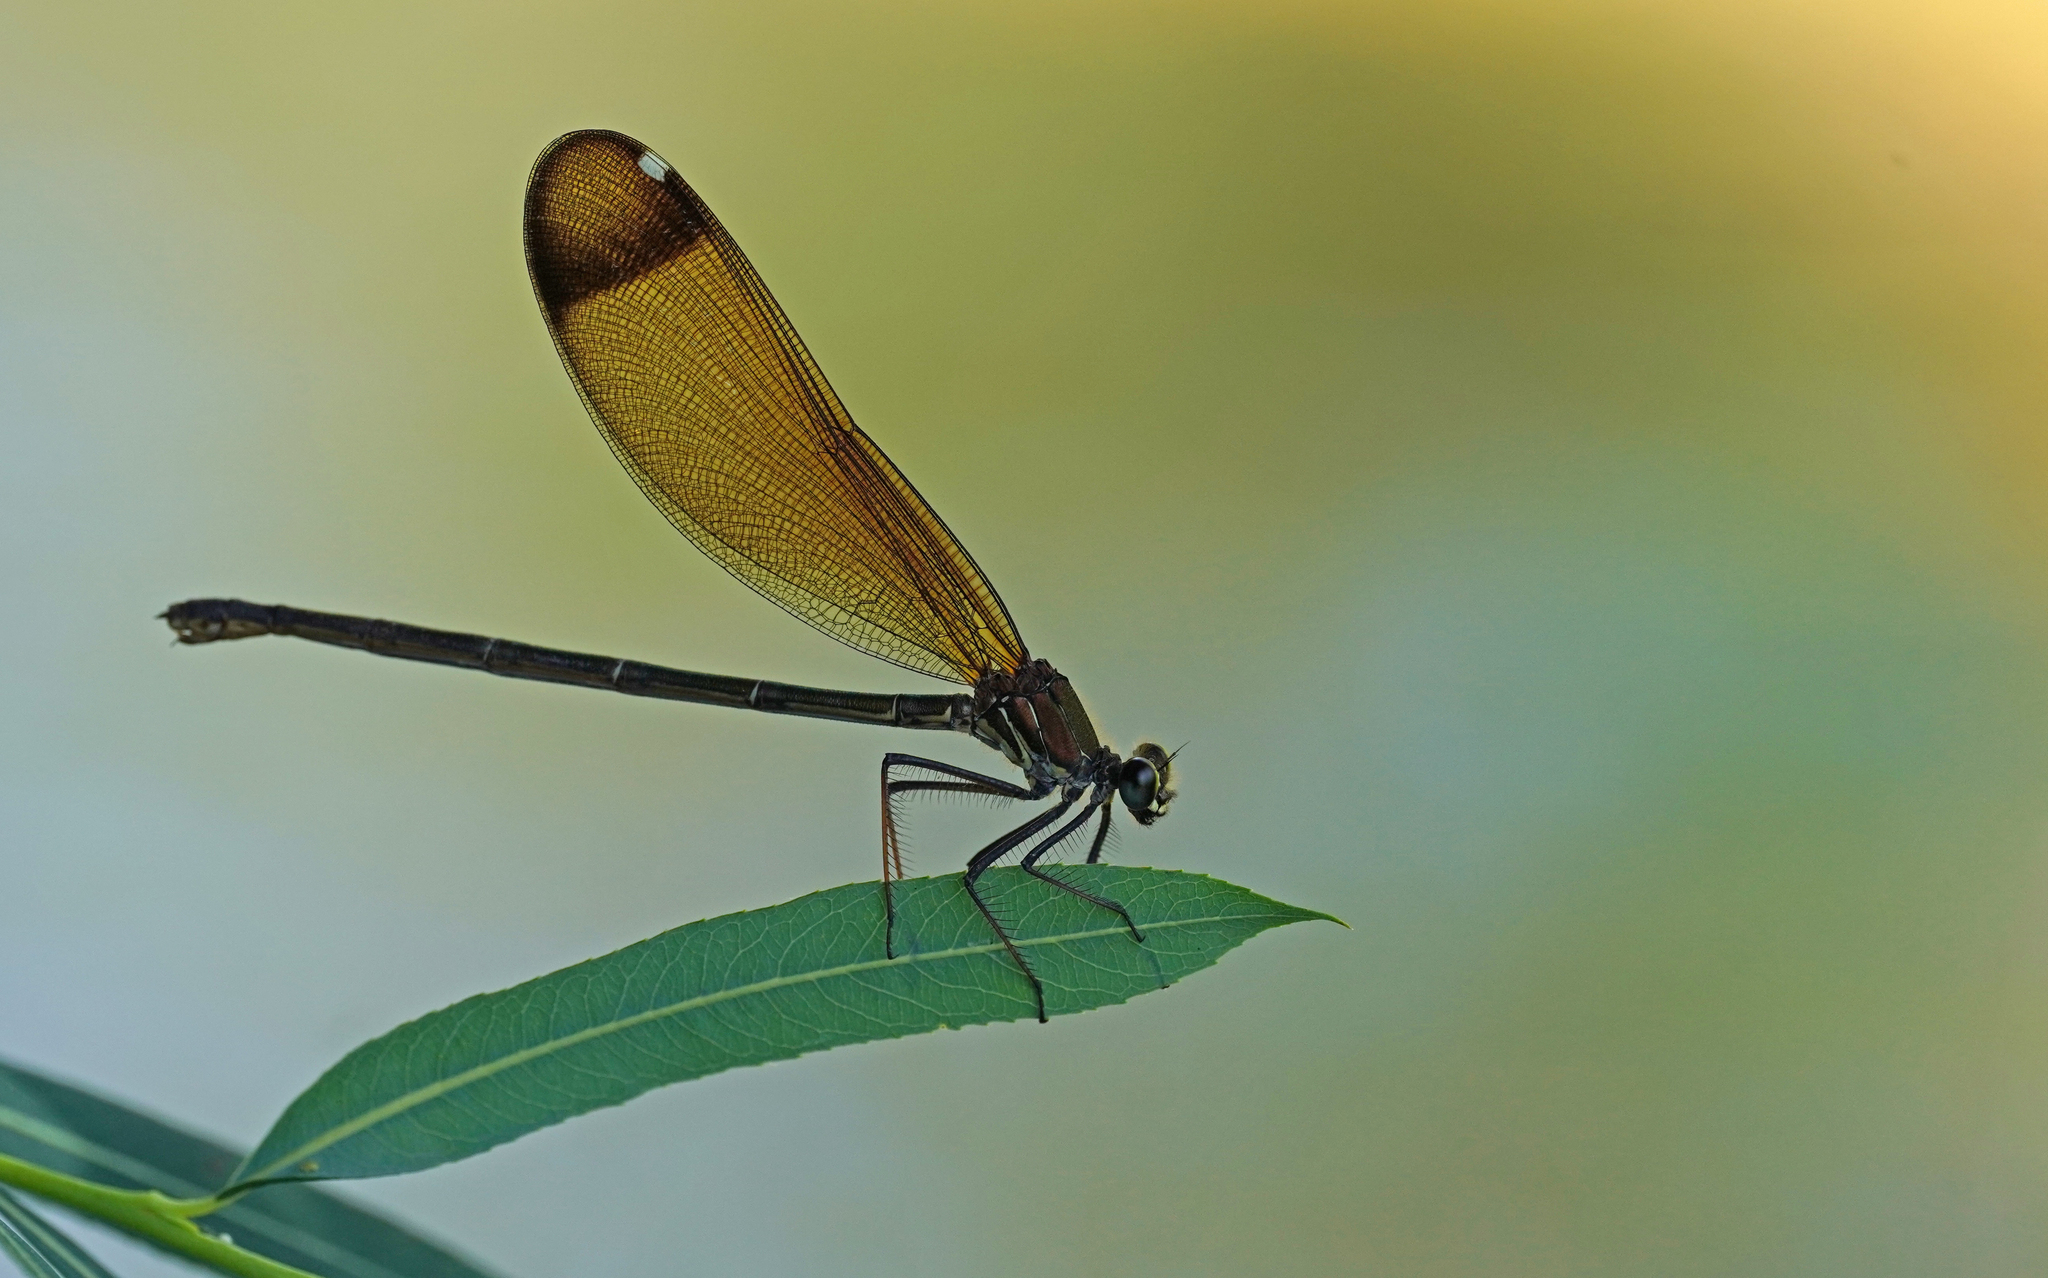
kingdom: Animalia
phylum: Arthropoda
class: Insecta
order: Odonata
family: Calopterygidae
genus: Calopteryx
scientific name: Calopteryx haemorrhoidalis
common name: Copper demoiselle
